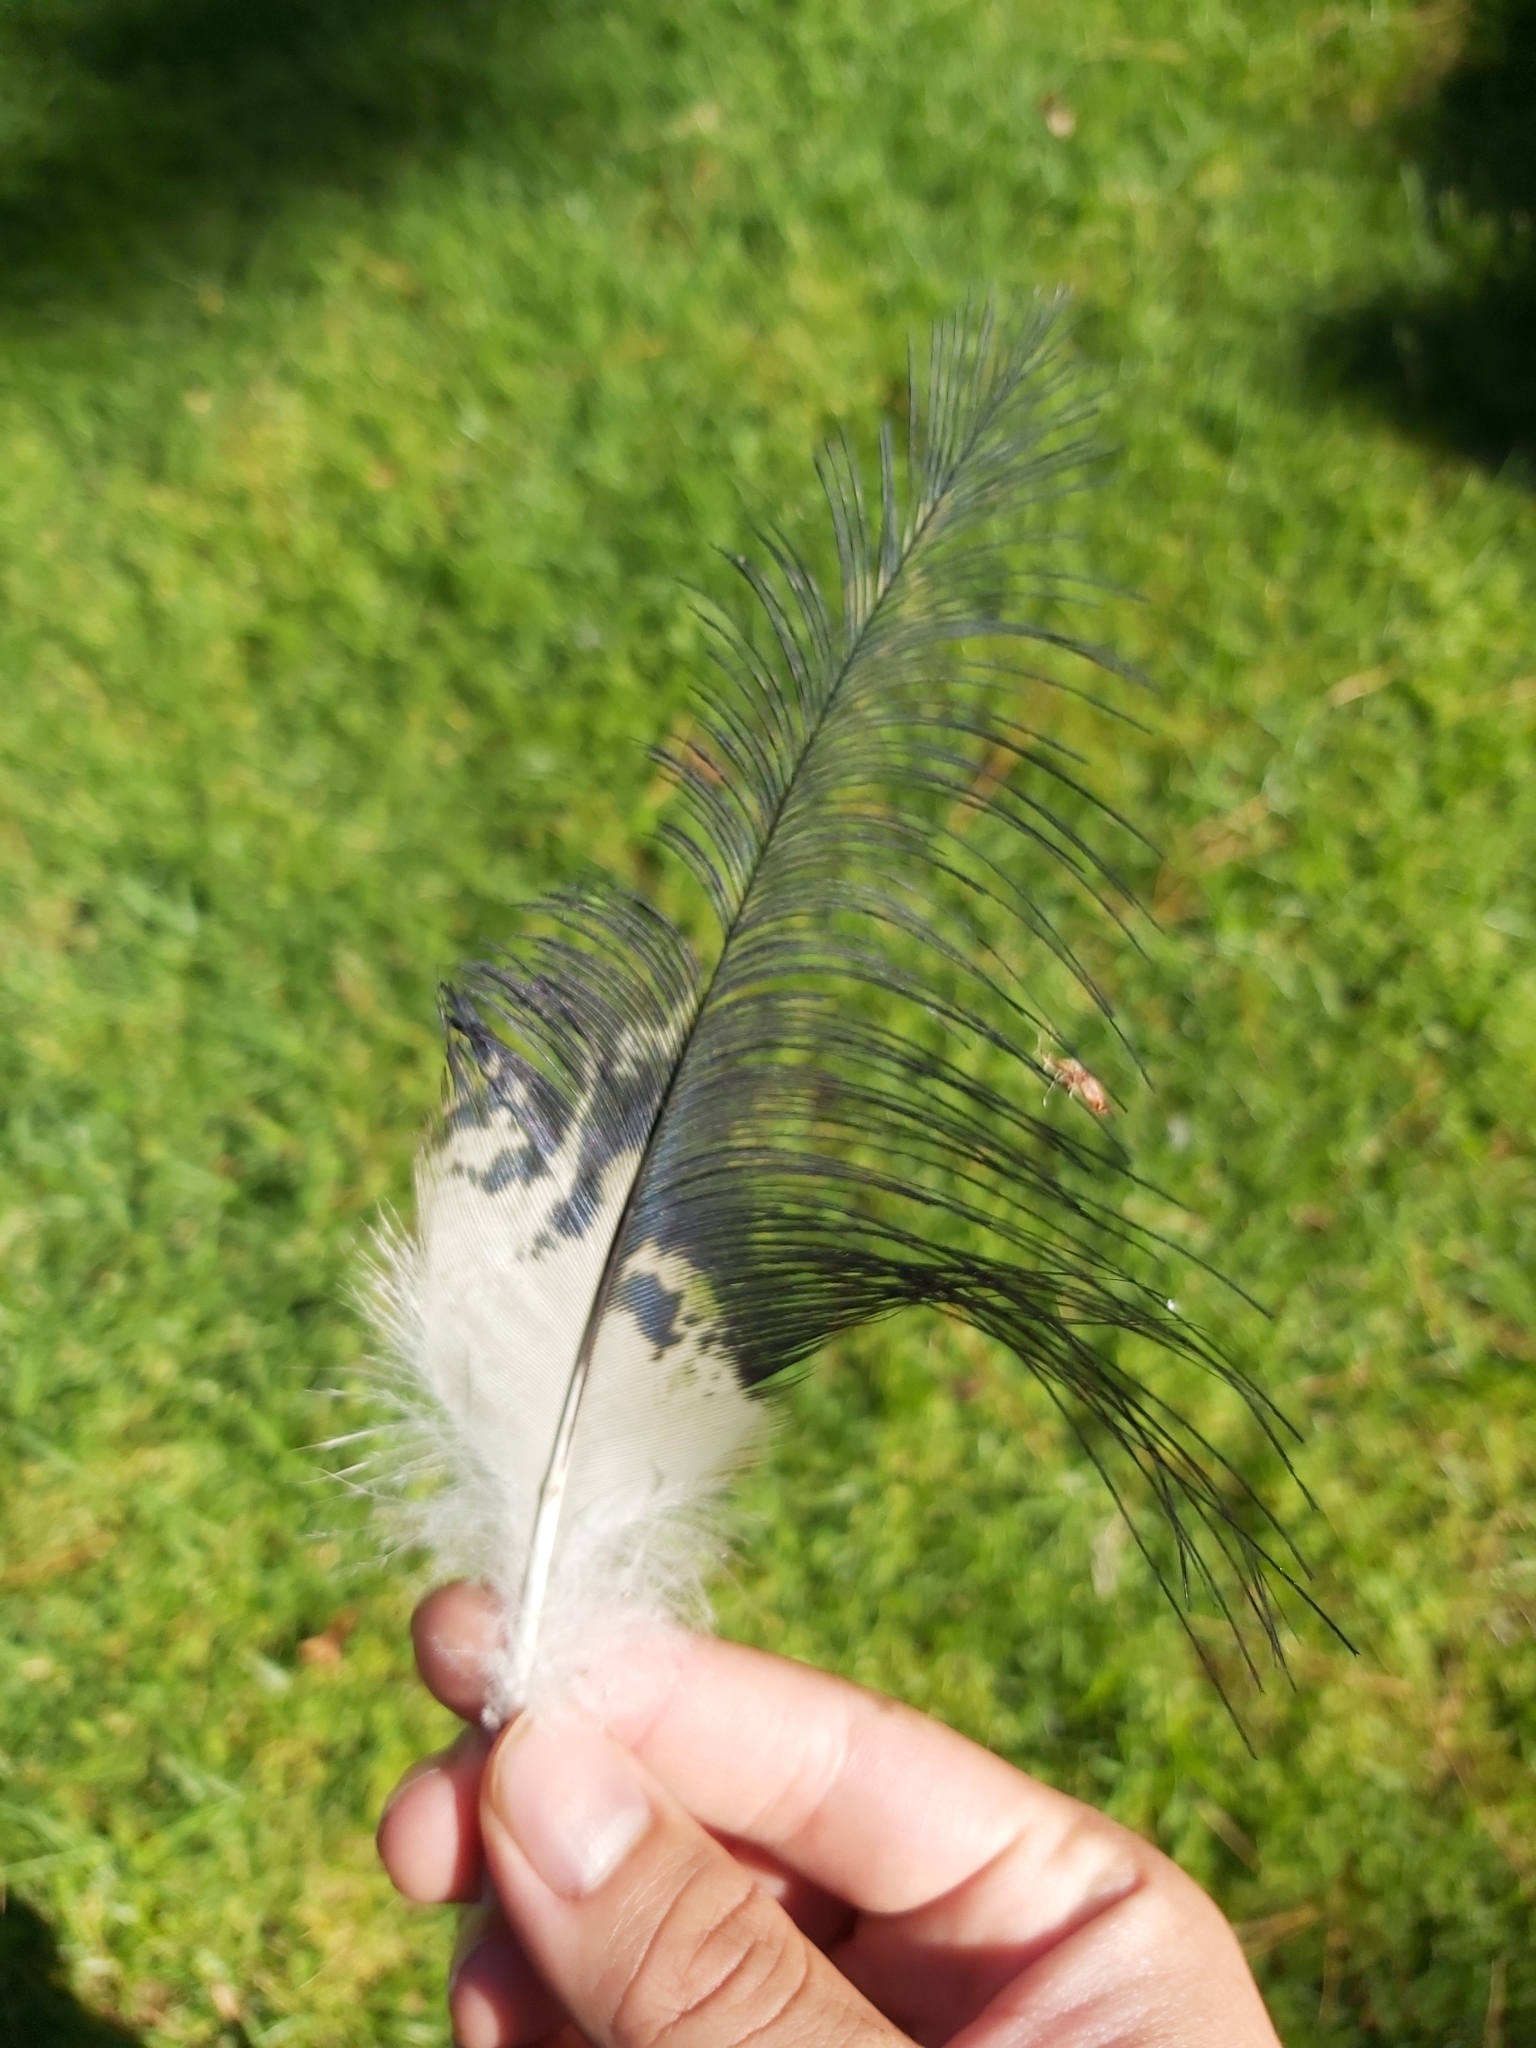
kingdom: Animalia
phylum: Chordata
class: Aves
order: Pelecaniformes
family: Threskiornithidae
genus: Threskiornis
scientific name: Threskiornis molucca
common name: Australian white ibis
